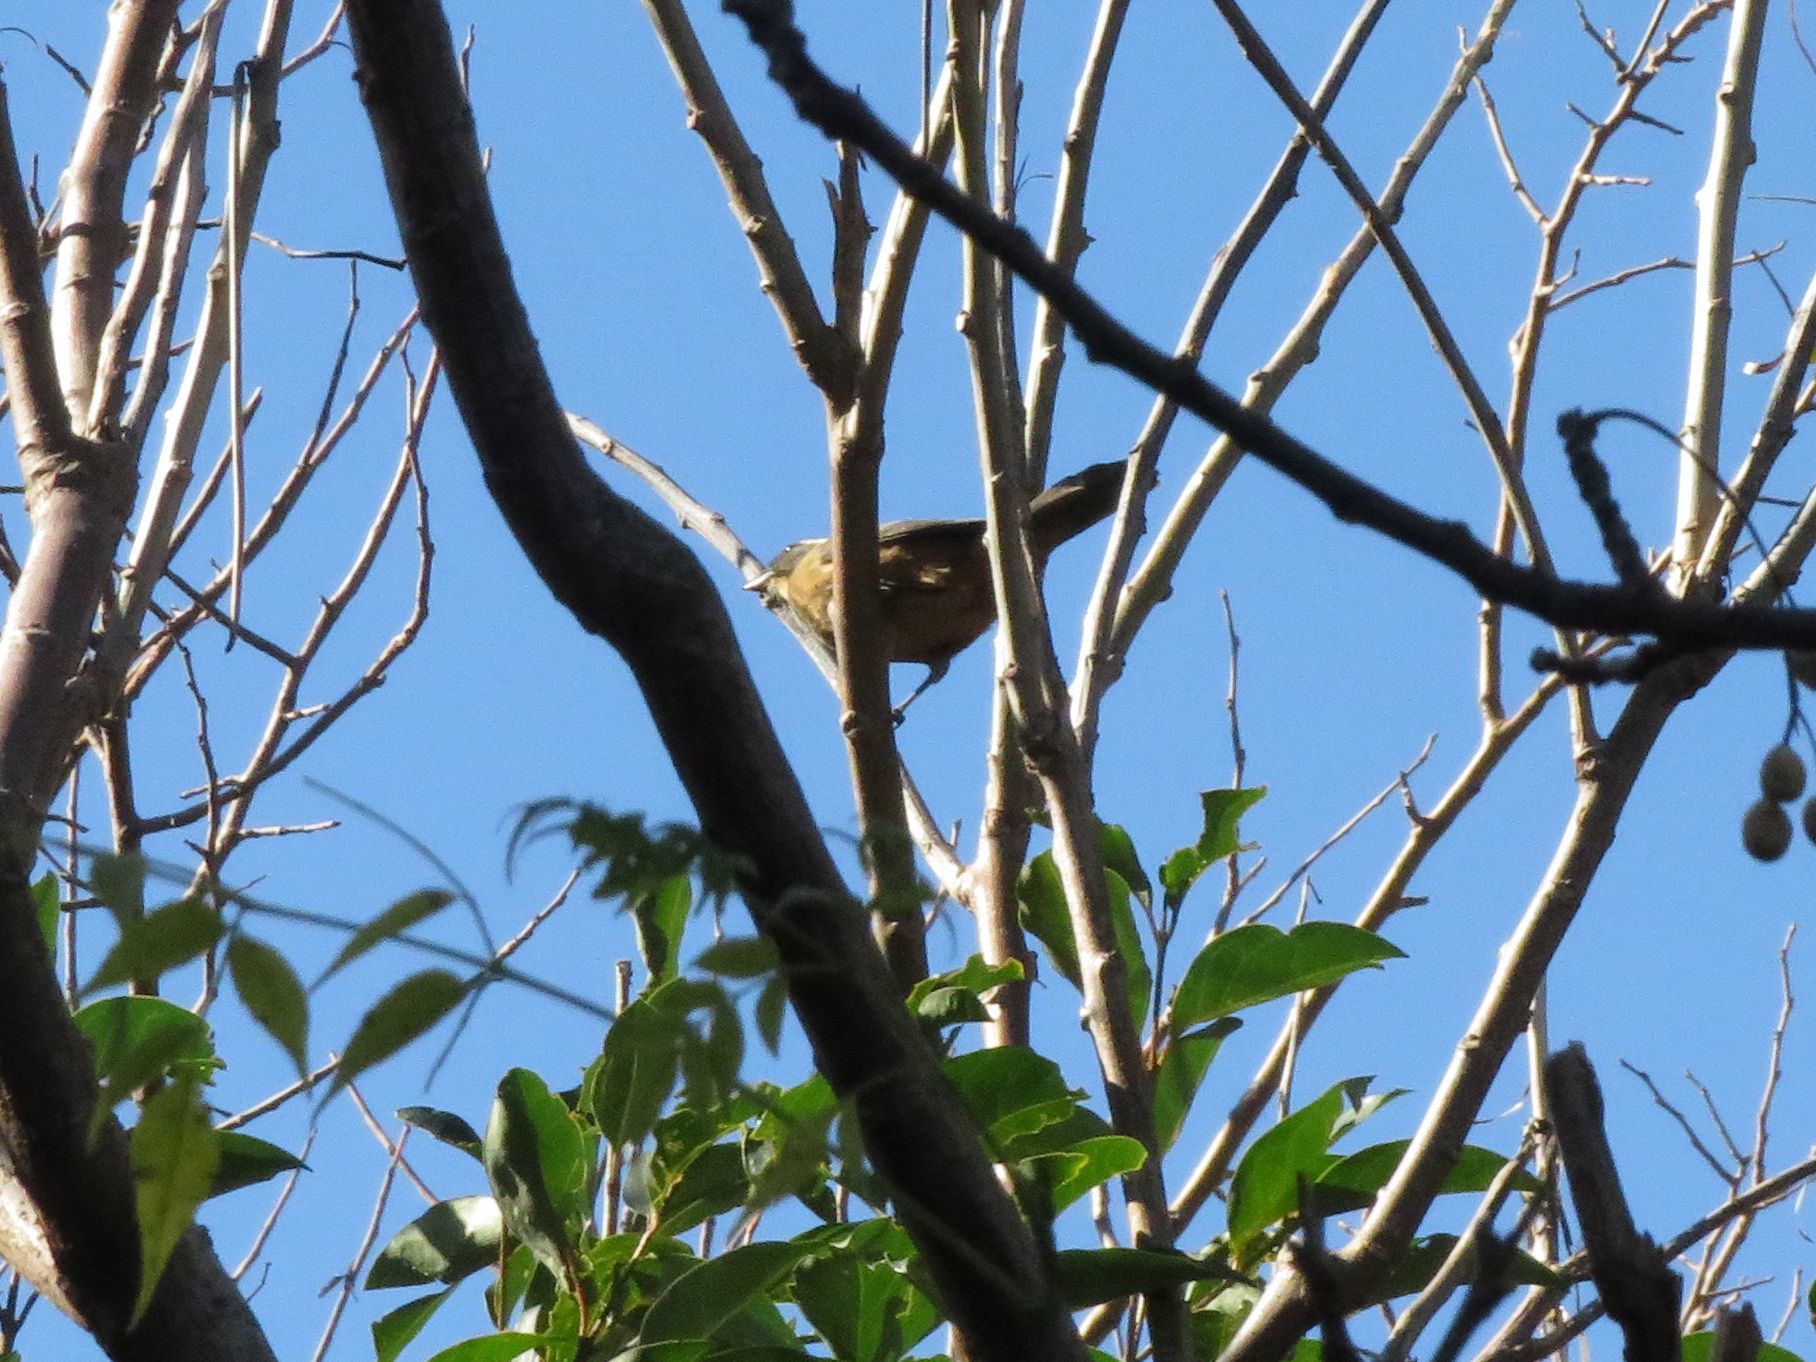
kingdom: Animalia
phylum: Chordata
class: Aves
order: Passeriformes
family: Thraupidae
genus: Saltator
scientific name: Saltator aurantiirostris
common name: Golden-billed saltator
